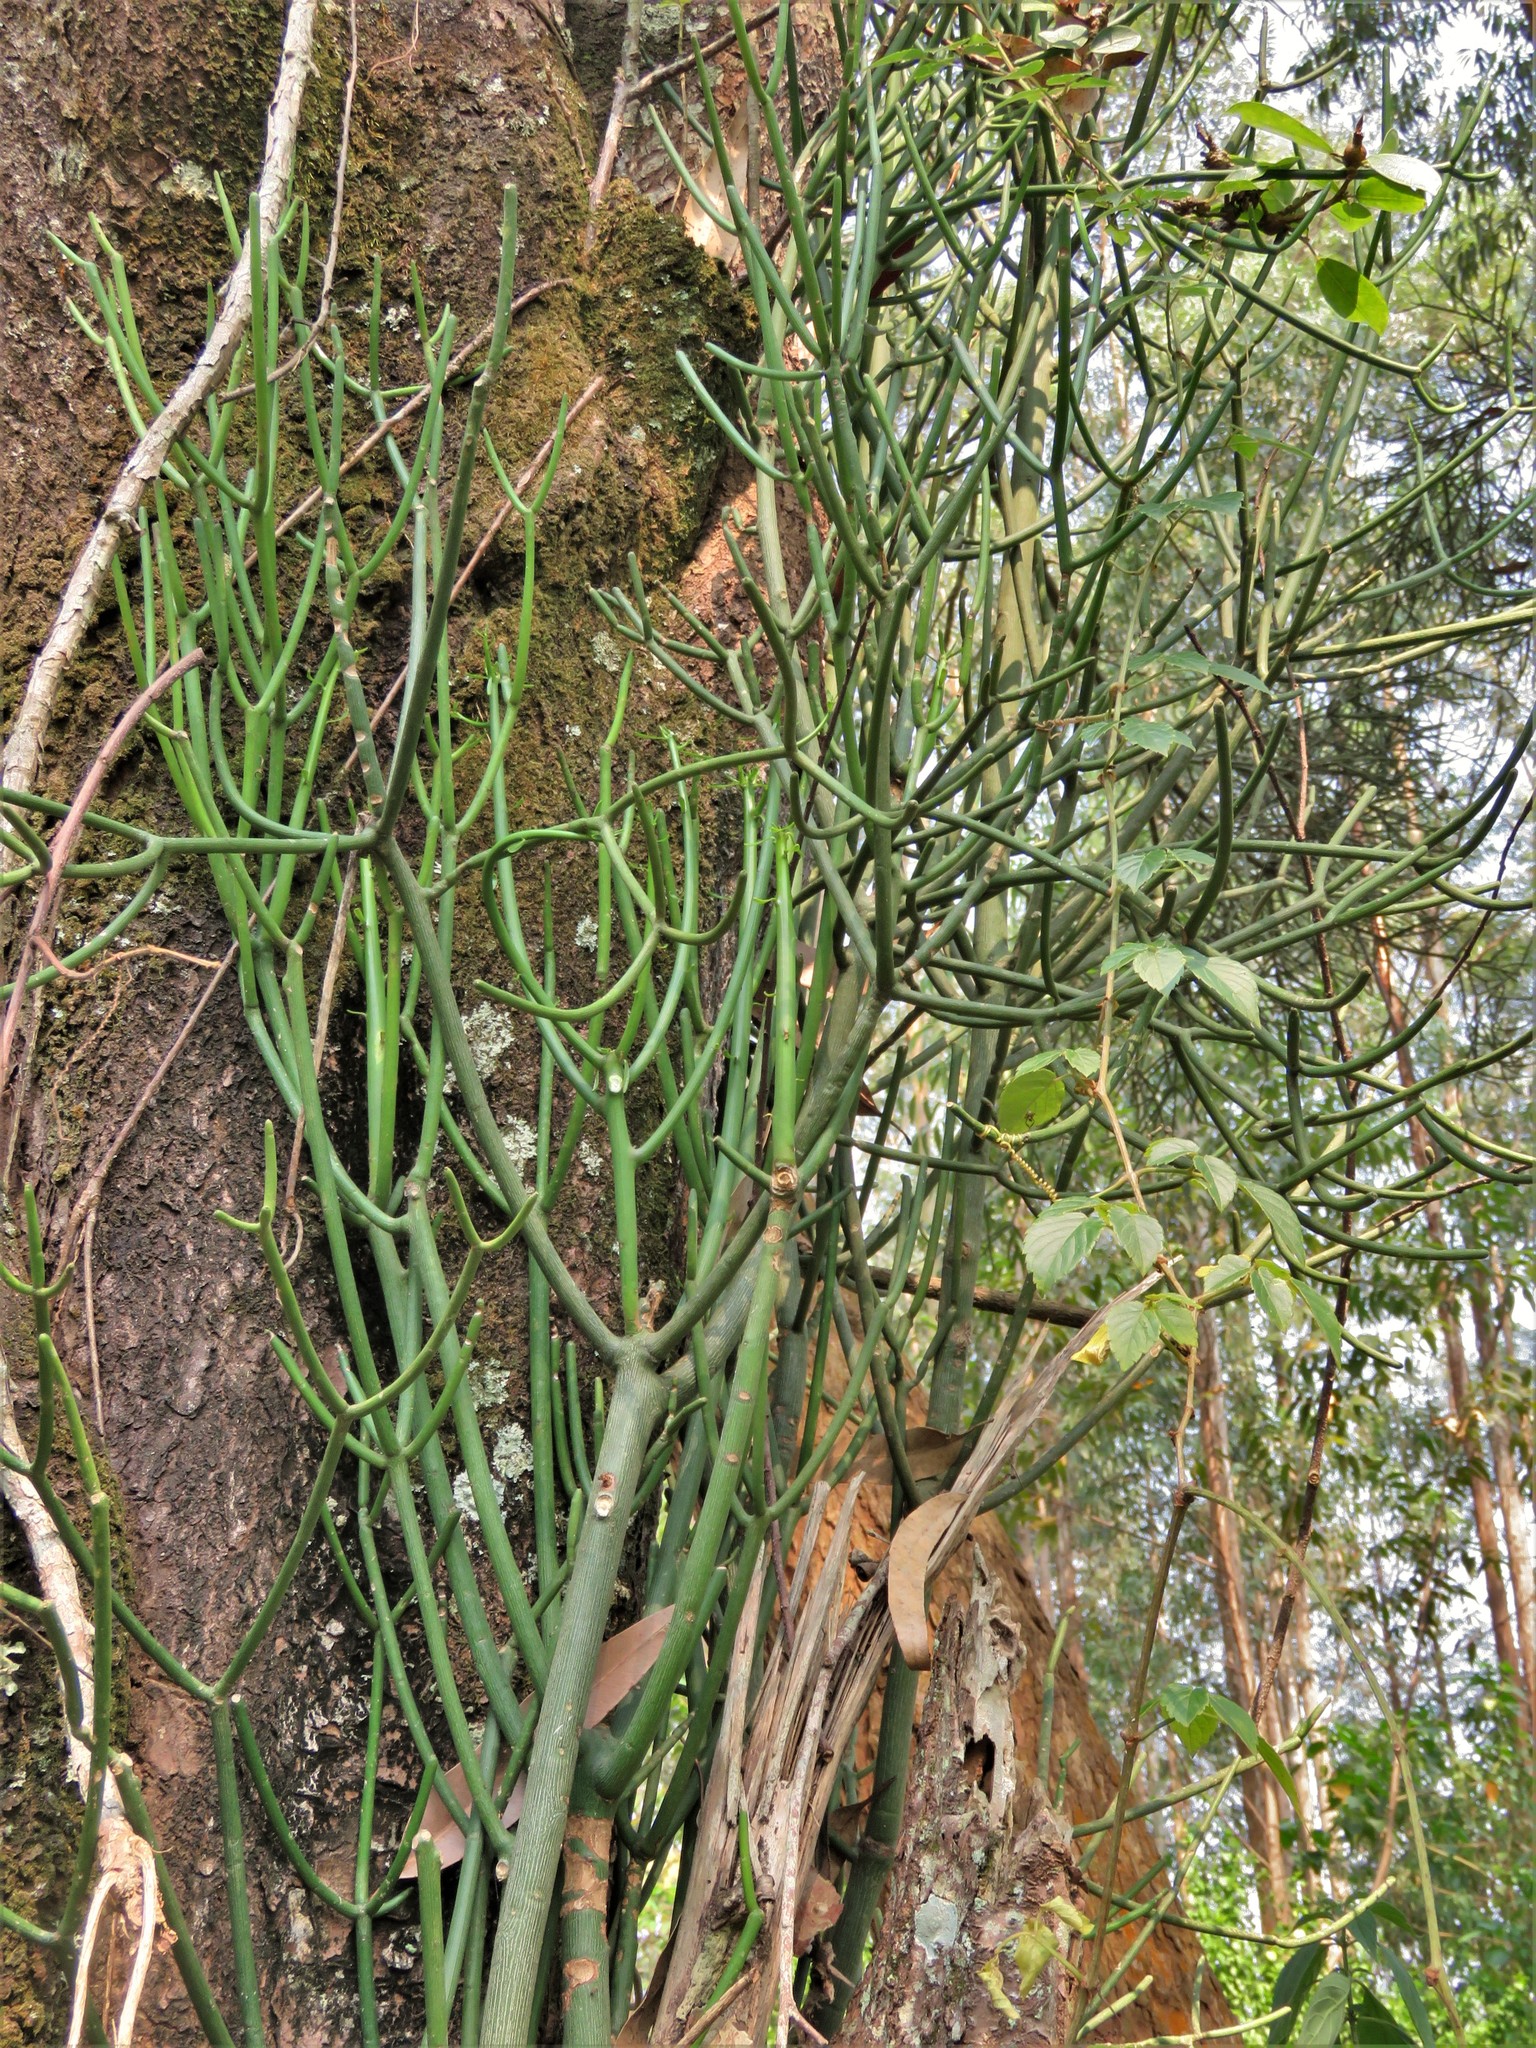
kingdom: Plantae
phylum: Tracheophyta
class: Magnoliopsida
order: Malpighiales
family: Euphorbiaceae
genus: Euphorbia
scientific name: Euphorbia tirucalli
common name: Indiantree spurge
